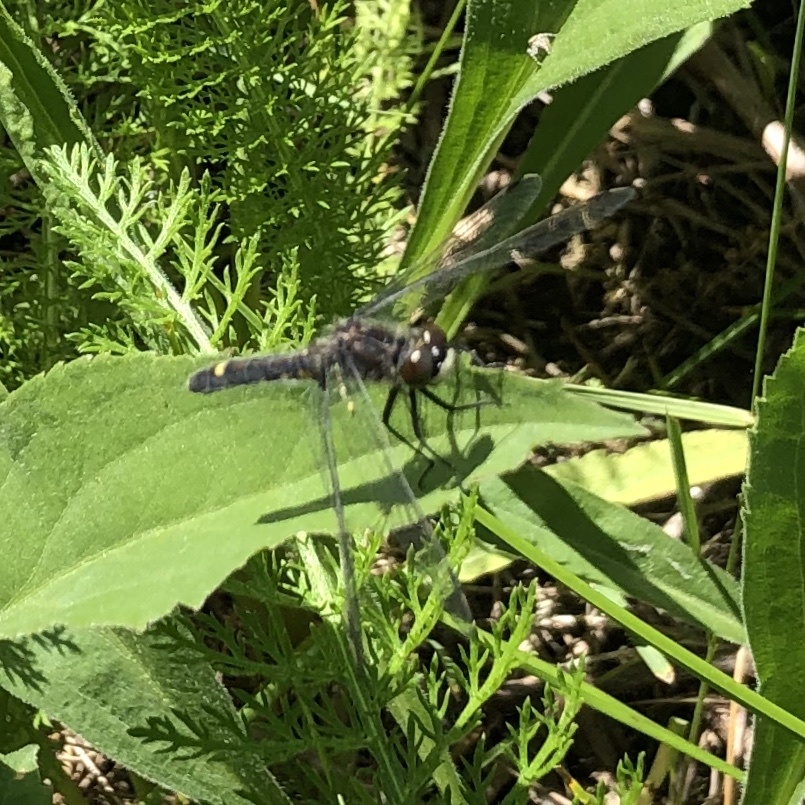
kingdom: Animalia
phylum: Arthropoda
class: Insecta
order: Odonata
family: Libellulidae
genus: Leucorrhinia
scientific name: Leucorrhinia intacta
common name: Dot-tailed whiteface
